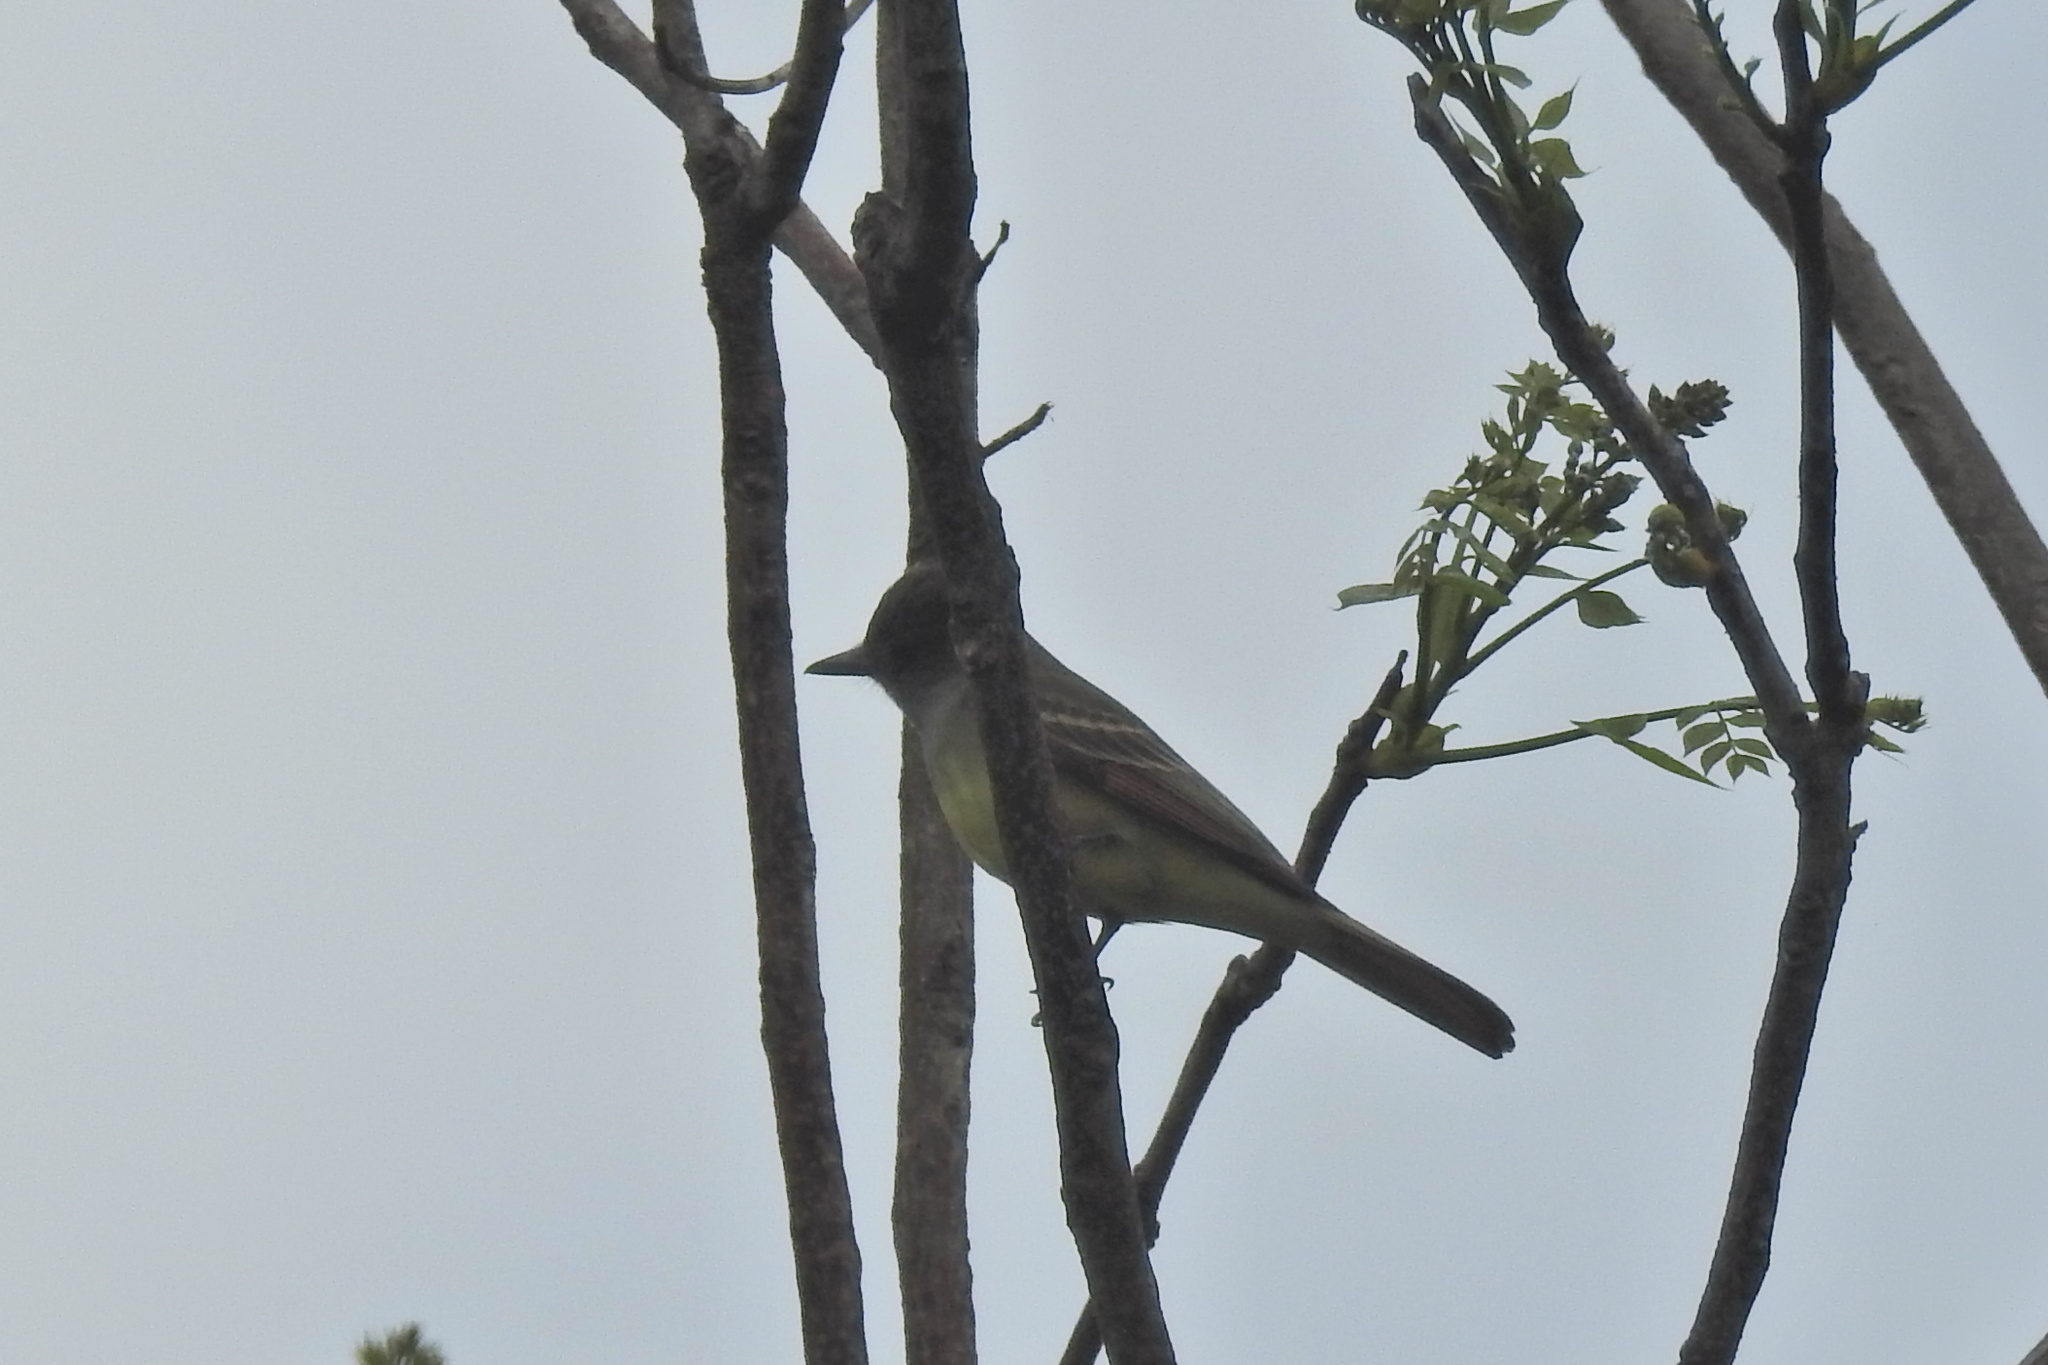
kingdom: Animalia
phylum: Chordata
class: Aves
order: Passeriformes
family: Tyrannidae
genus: Myiarchus
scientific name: Myiarchus crinitus
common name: Great crested flycatcher
